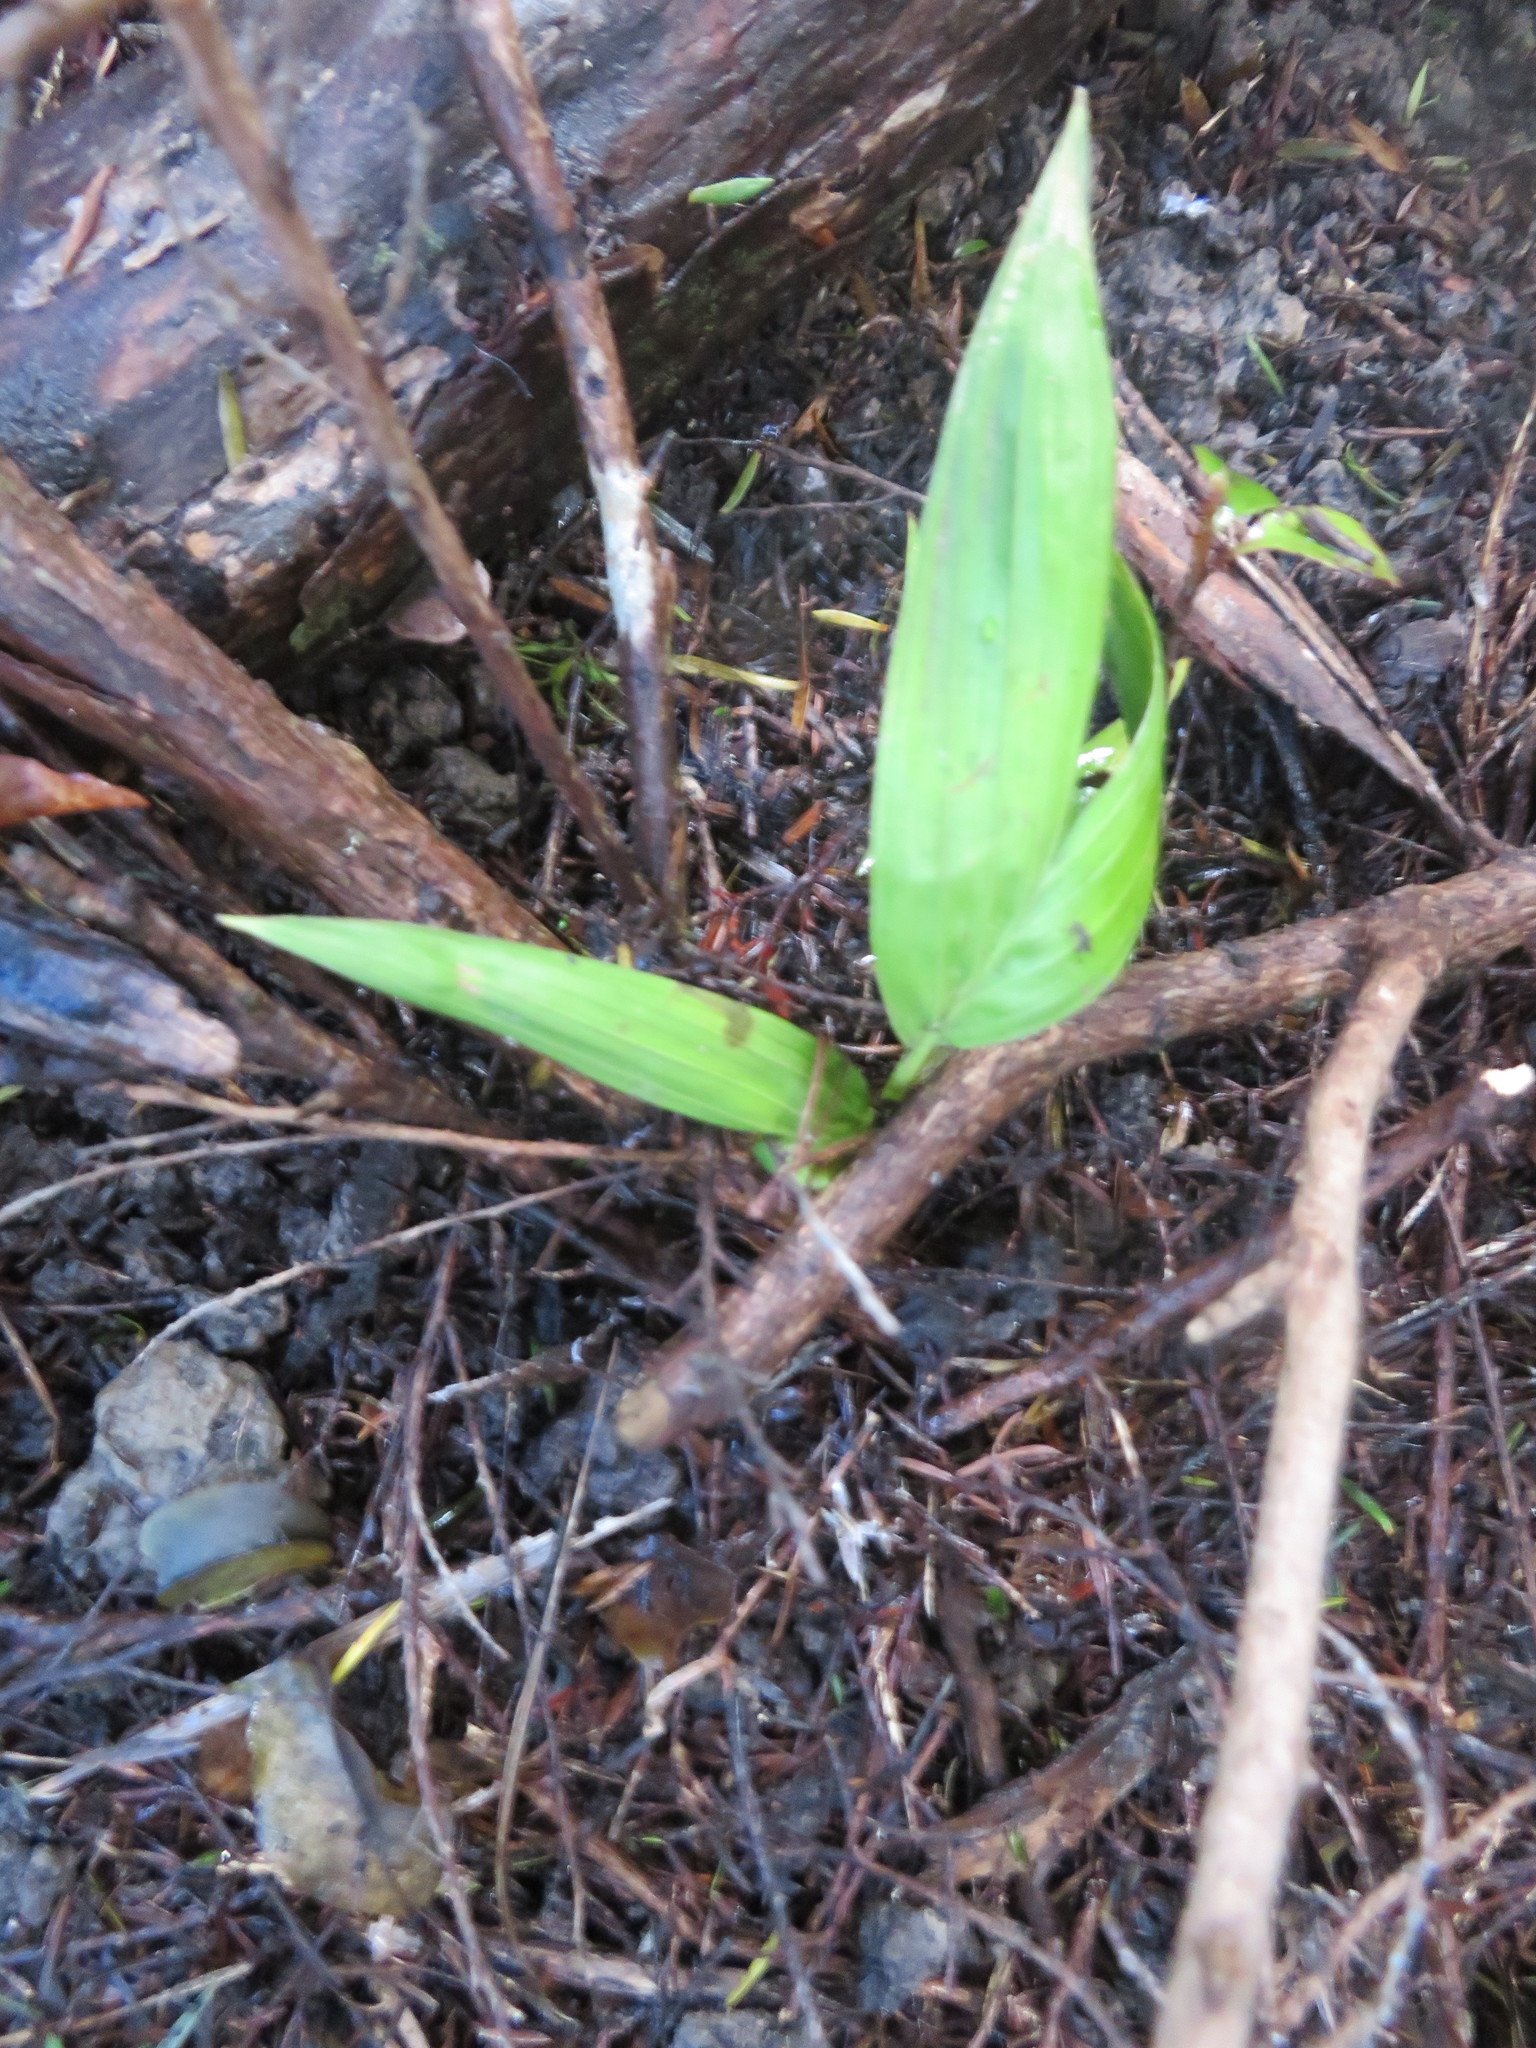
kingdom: Plantae
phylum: Tracheophyta
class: Liliopsida
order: Arecales
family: Arecaceae
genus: Archontophoenix
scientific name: Archontophoenix cunninghamiana
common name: Piccabeen bangalow palm
